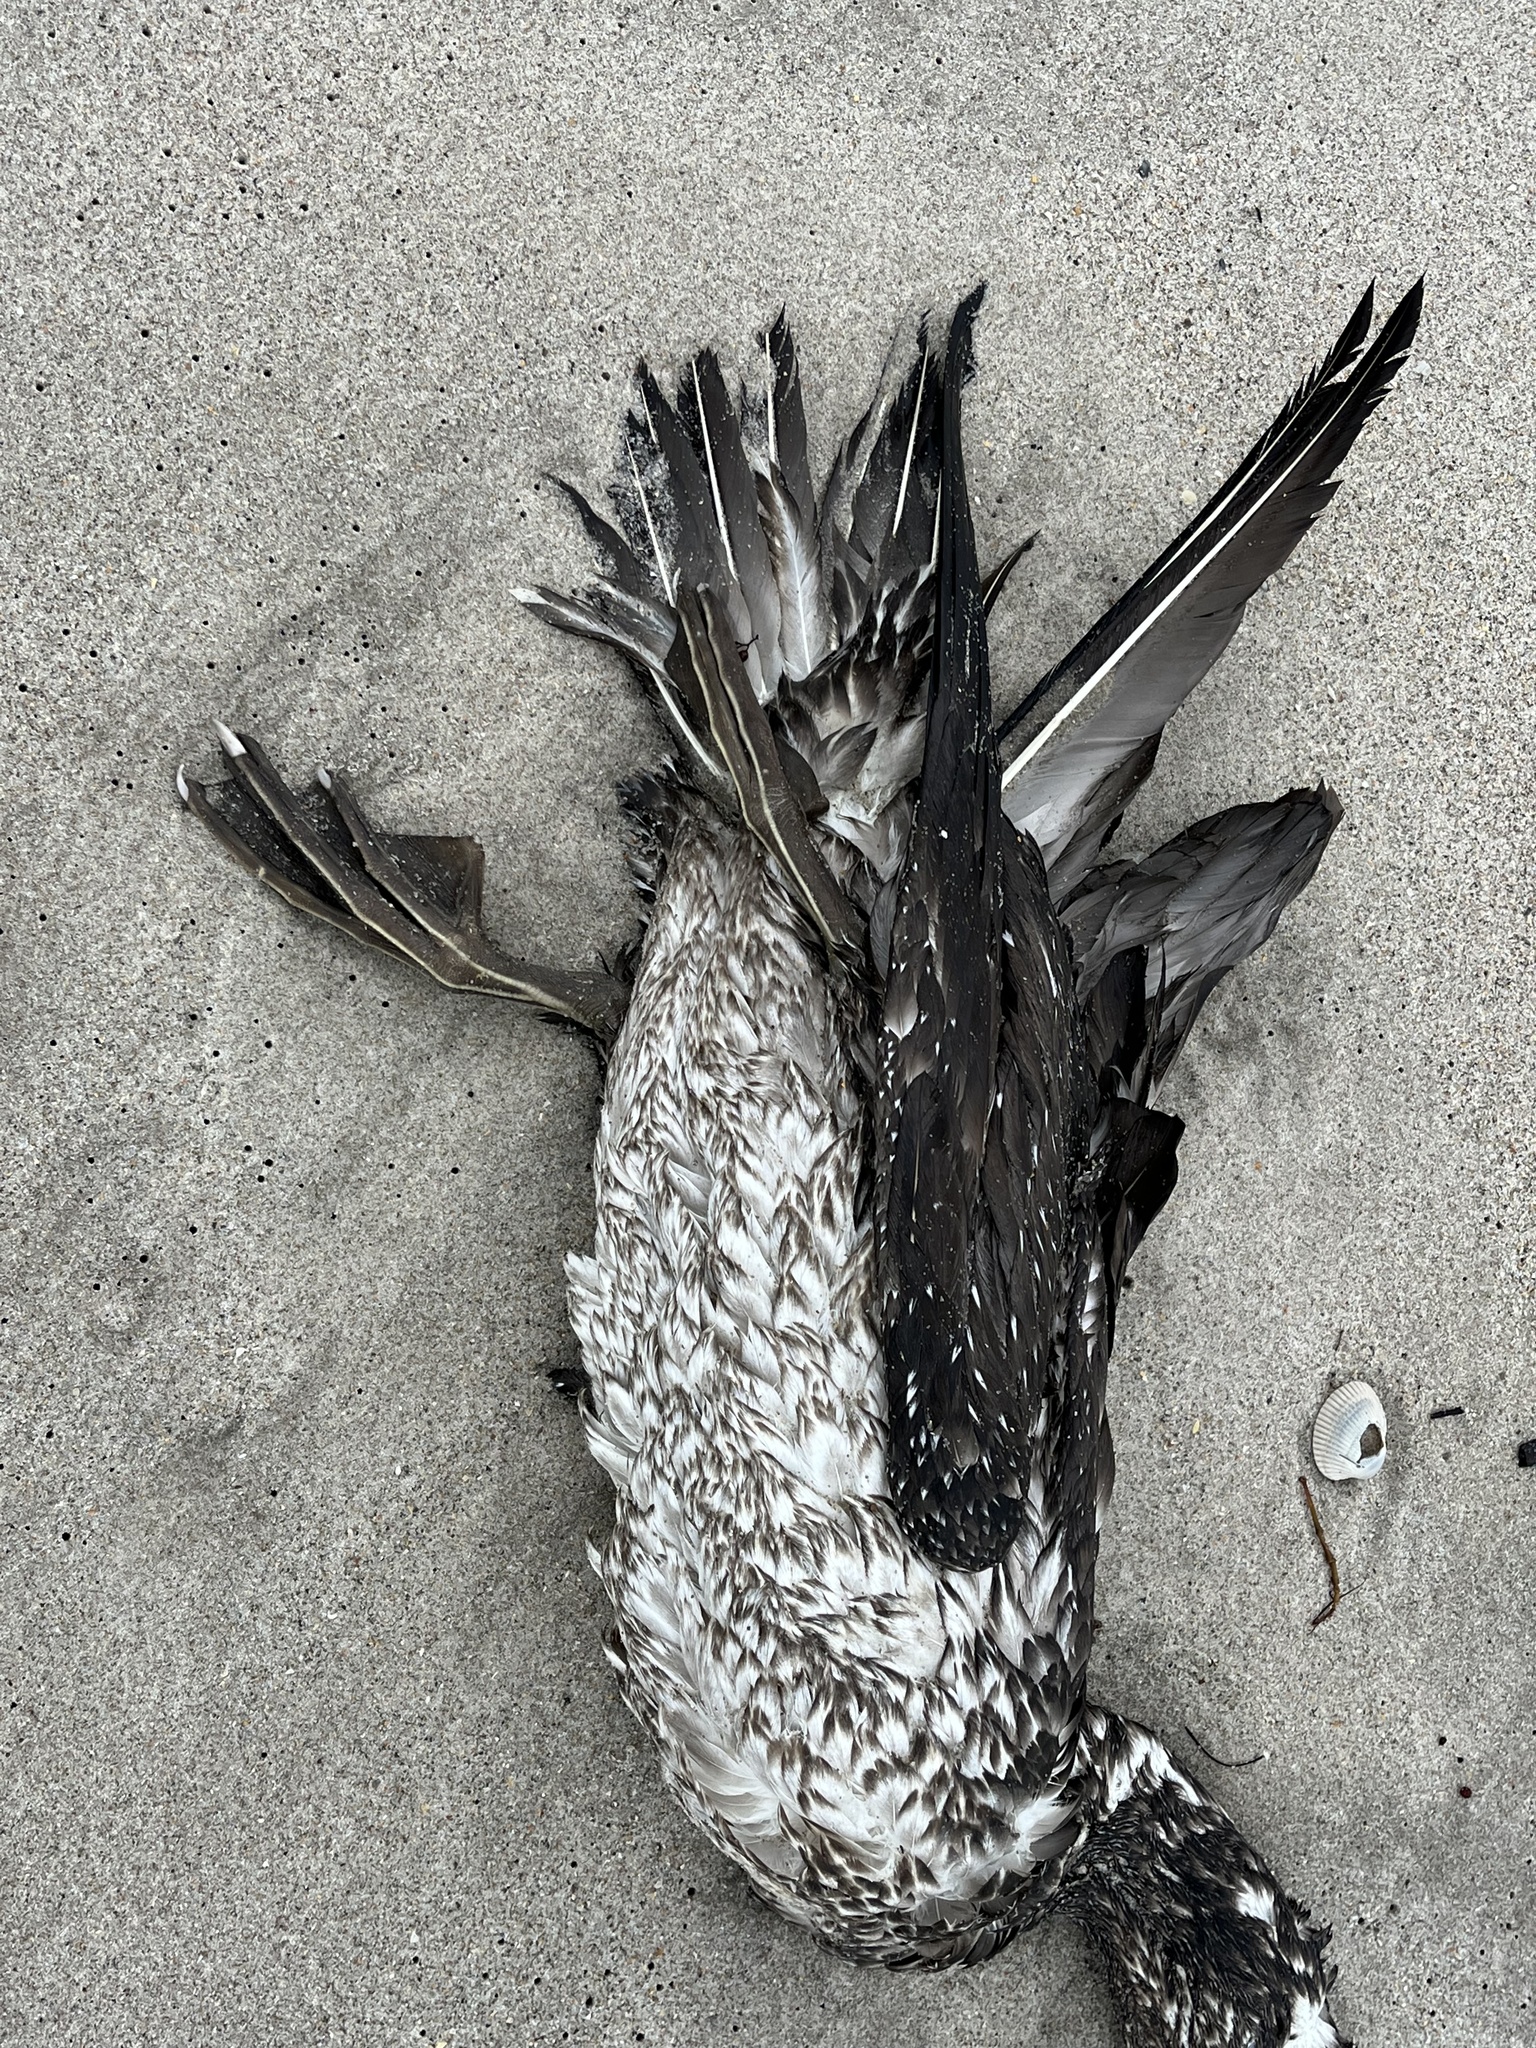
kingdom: Animalia
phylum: Chordata
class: Aves
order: Suliformes
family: Sulidae
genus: Morus
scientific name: Morus bassanus
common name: Northern gannet
